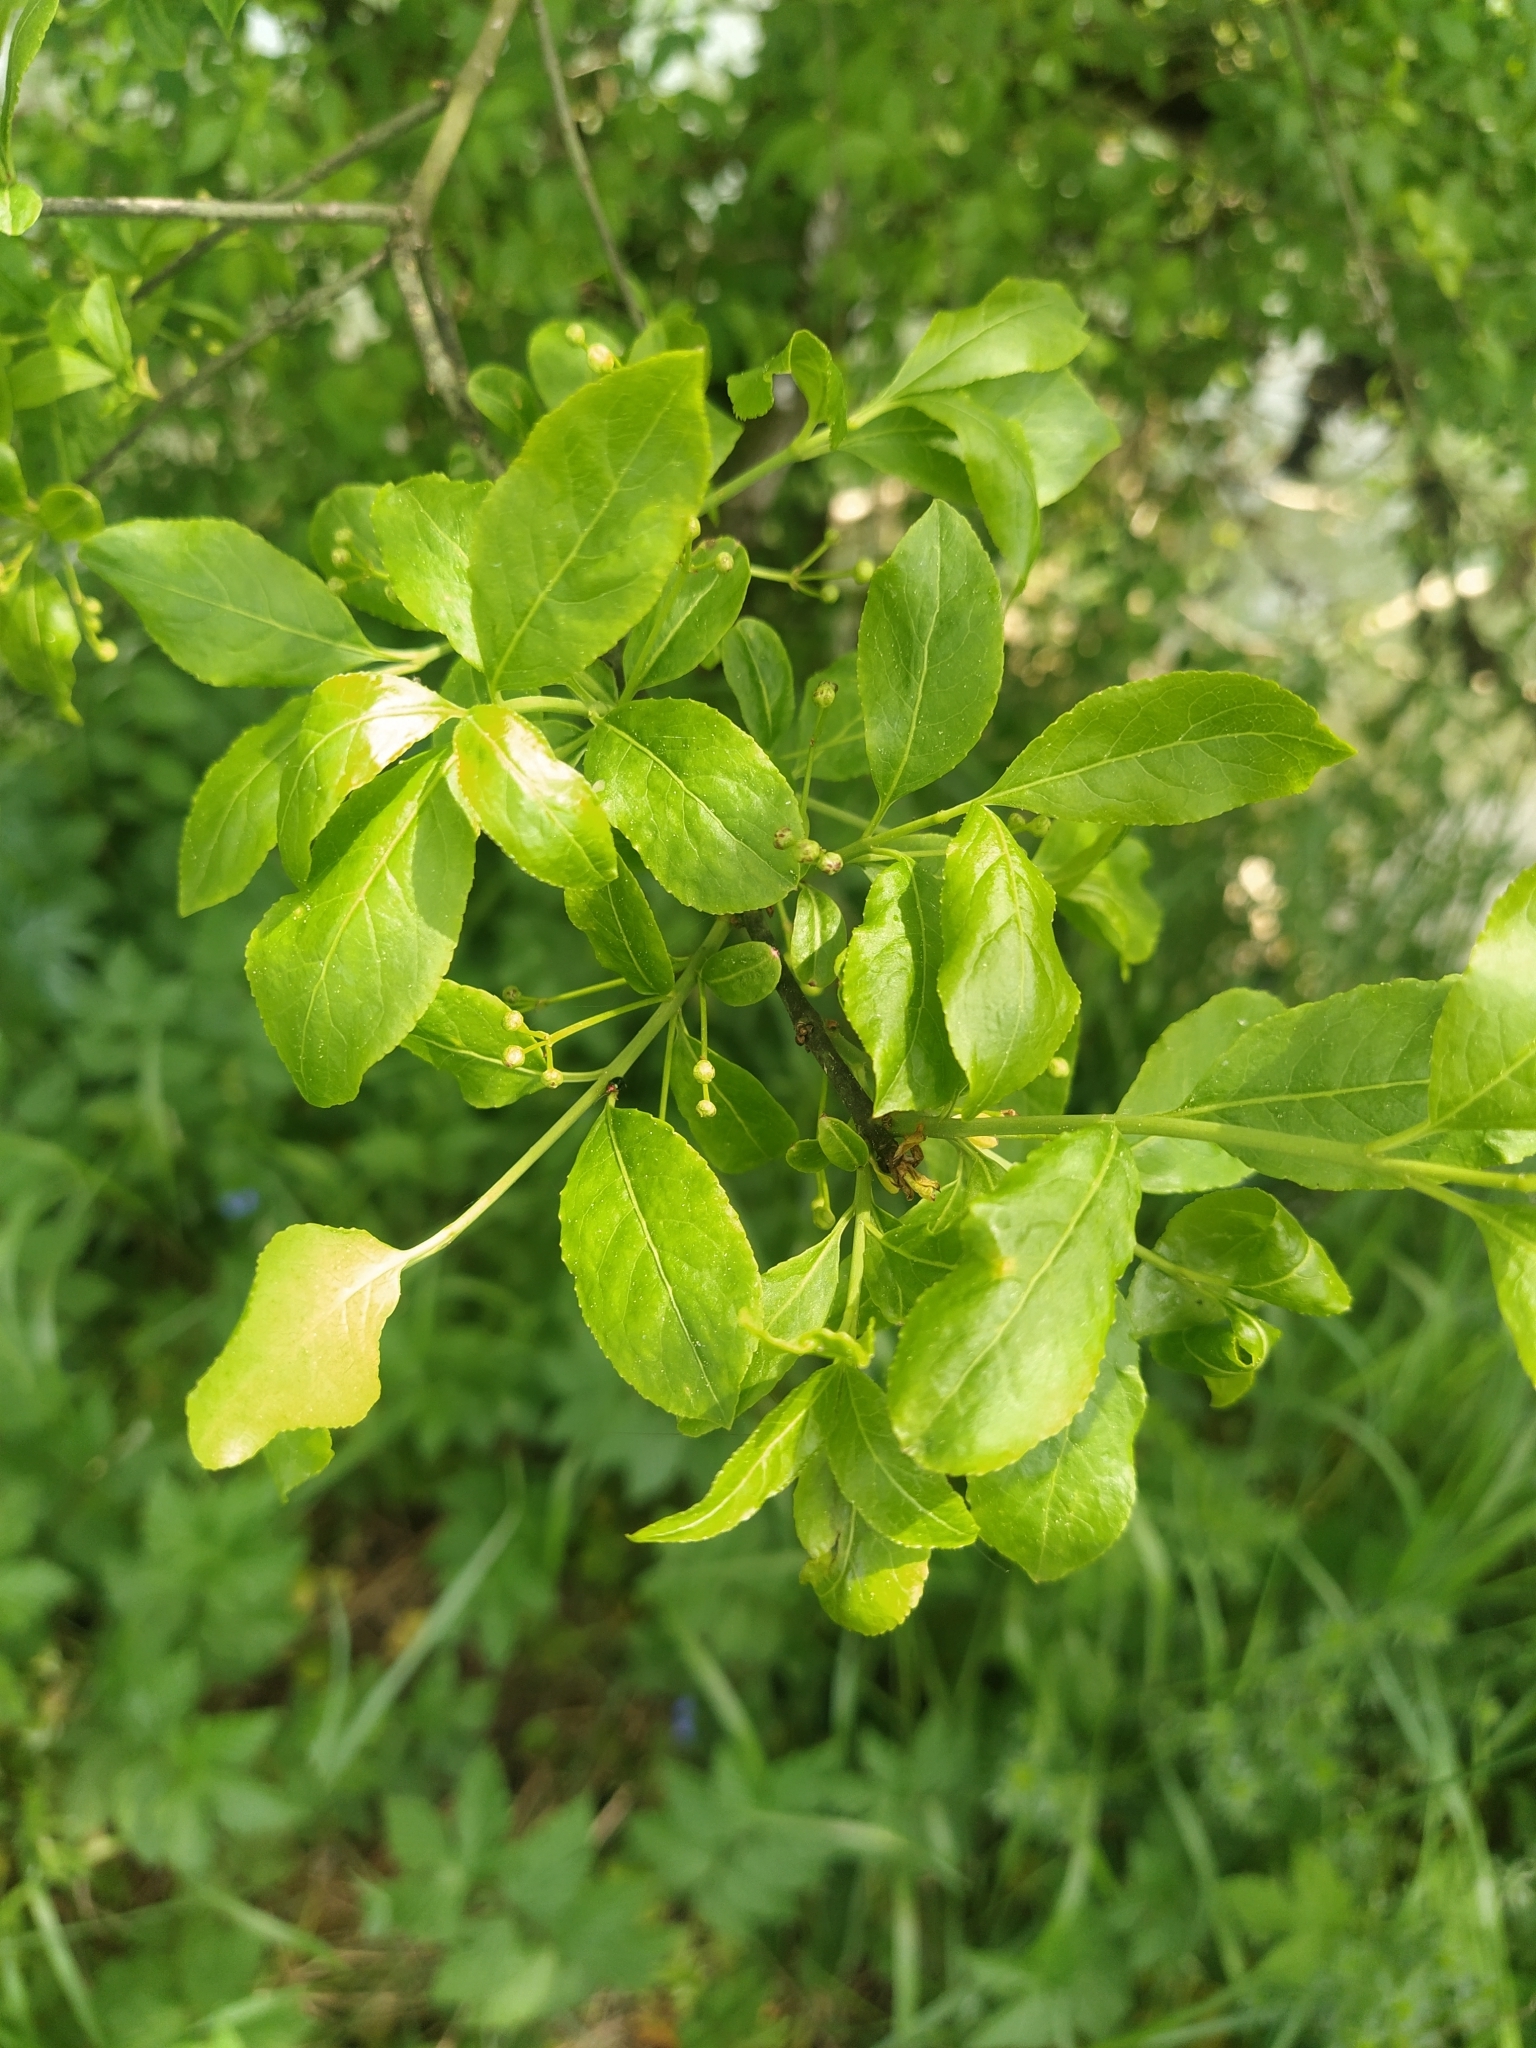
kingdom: Plantae
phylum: Tracheophyta
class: Magnoliopsida
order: Celastrales
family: Celastraceae
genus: Euonymus
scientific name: Euonymus europaeus
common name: Spindle
